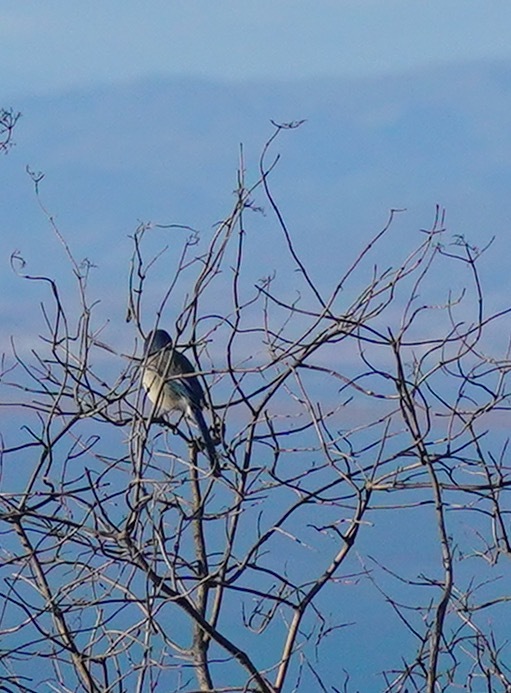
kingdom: Animalia
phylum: Chordata
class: Aves
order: Passeriformes
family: Corvidae
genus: Aphelocoma
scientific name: Aphelocoma californica
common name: California scrub-jay
